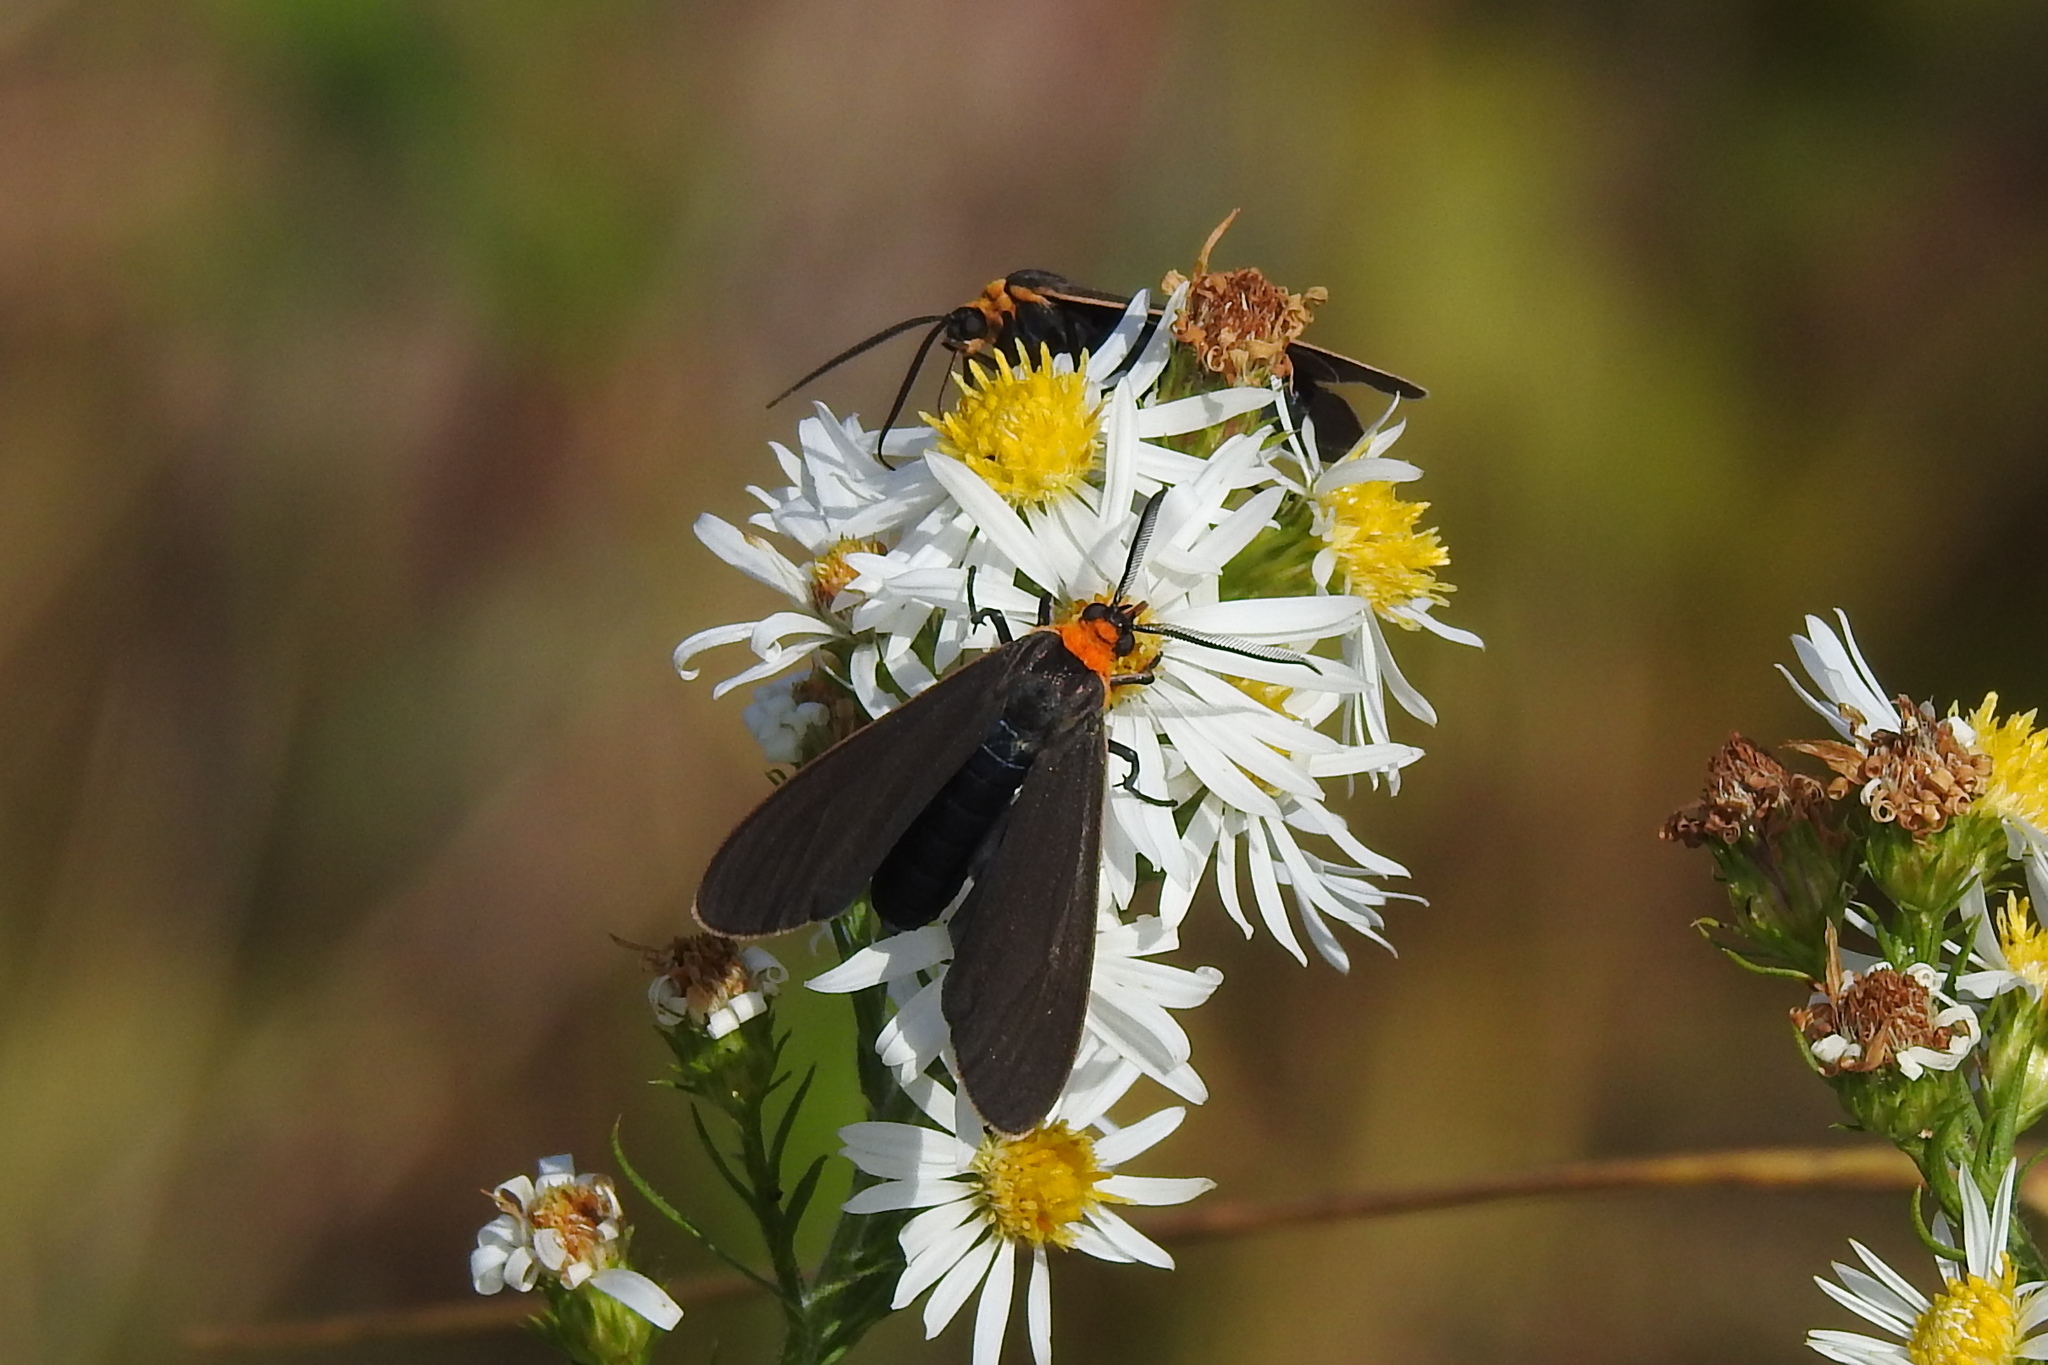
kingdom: Animalia
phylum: Arthropoda
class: Insecta
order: Lepidoptera
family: Erebidae
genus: Cisseps
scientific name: Cisseps fulvicollis
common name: Yellow-collared scape moth
